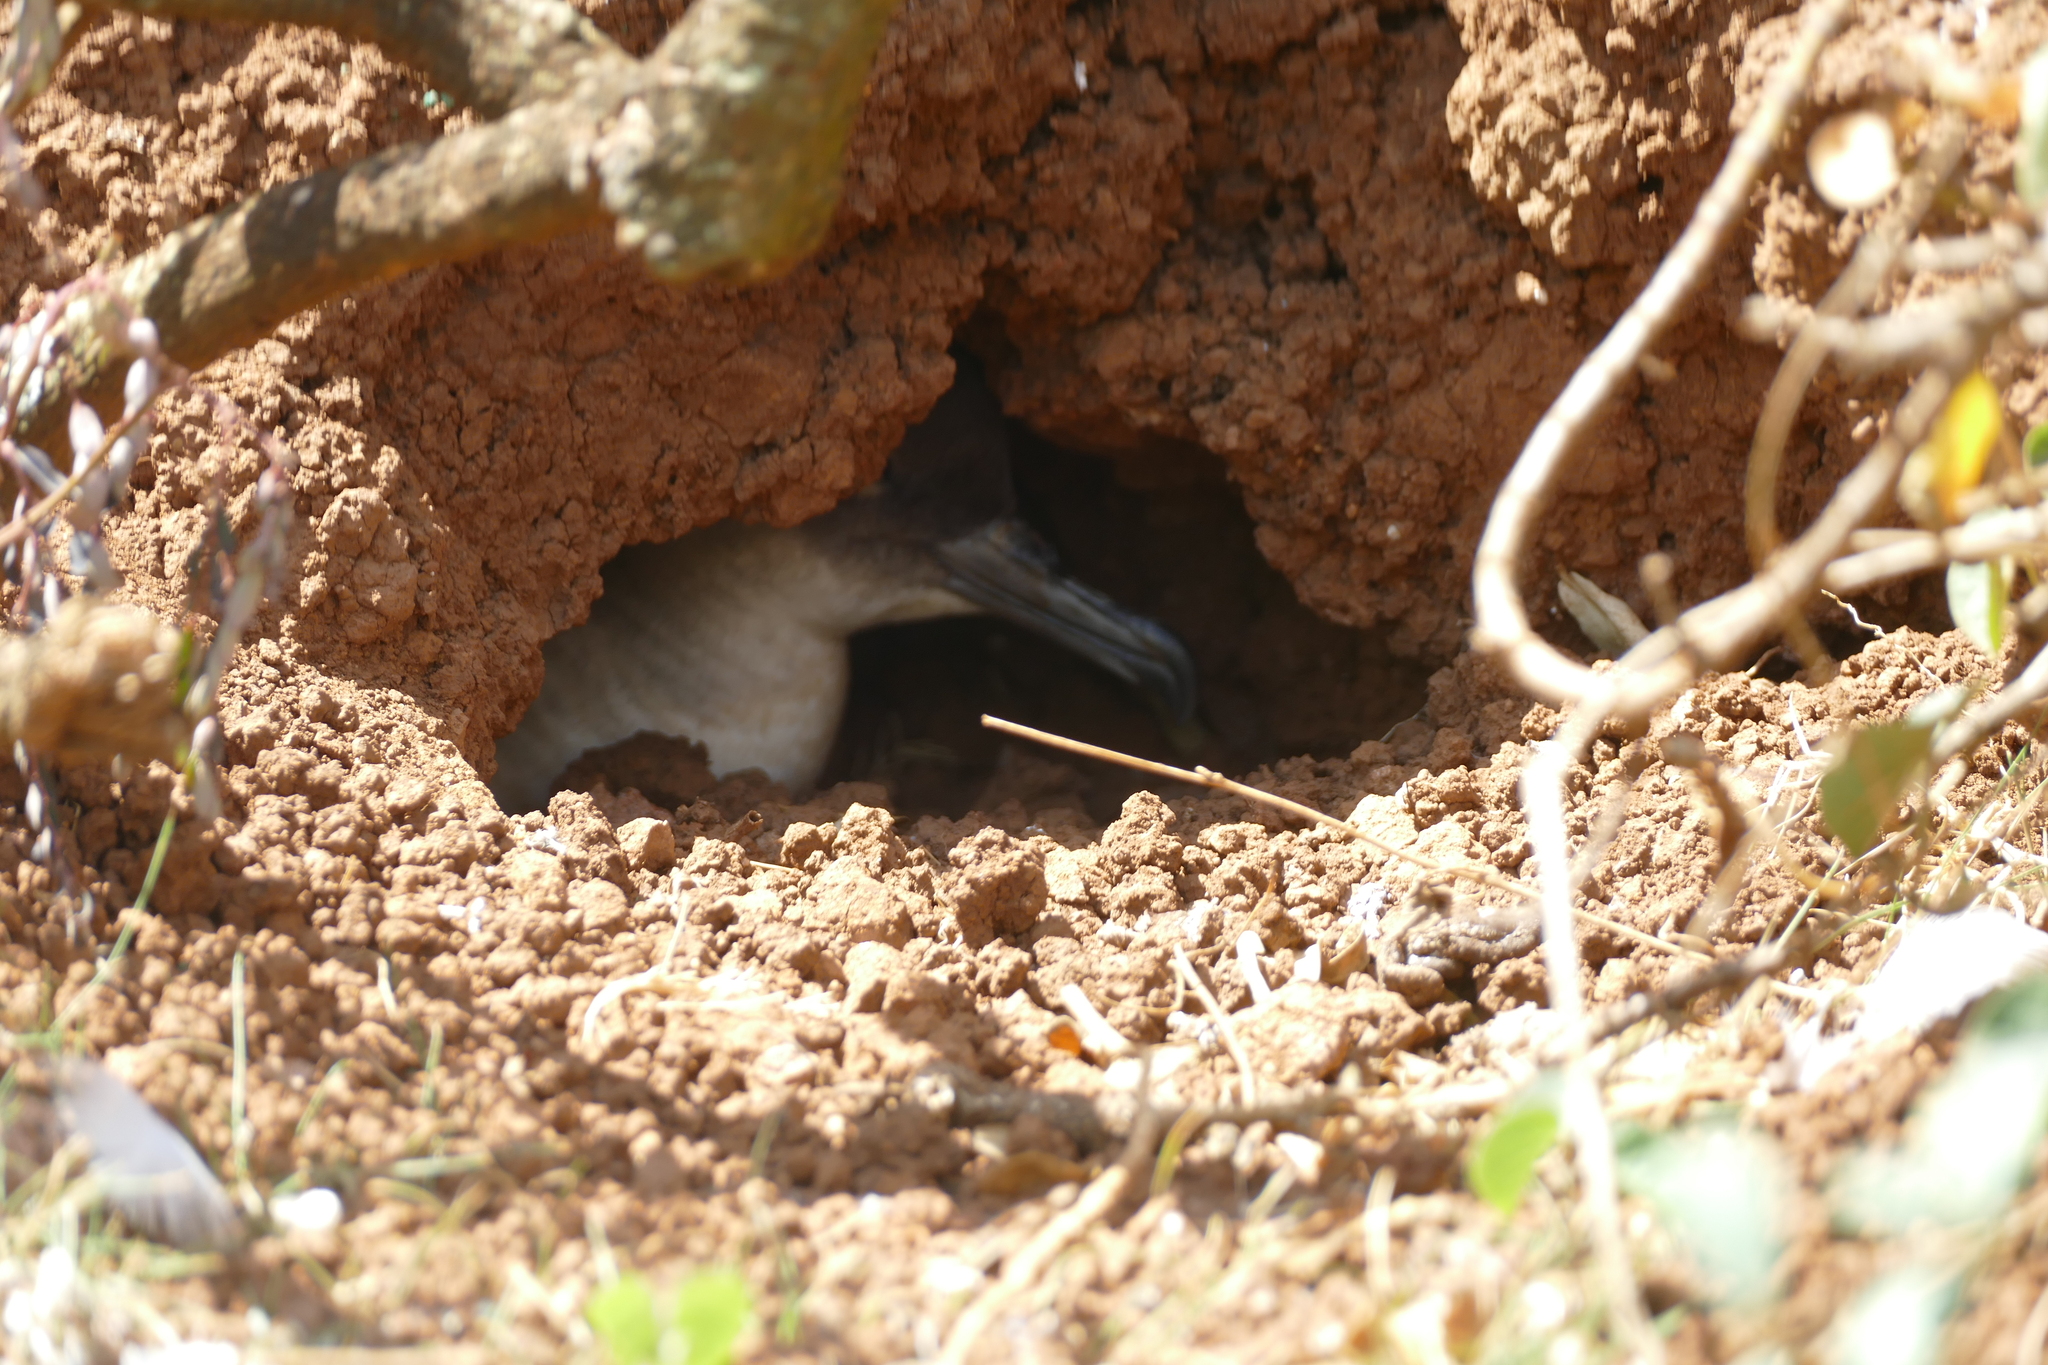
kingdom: Animalia
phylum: Chordata
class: Aves
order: Procellariiformes
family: Procellariidae
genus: Puffinus
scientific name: Puffinus pacificus
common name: Wedge-tailed shearwater
